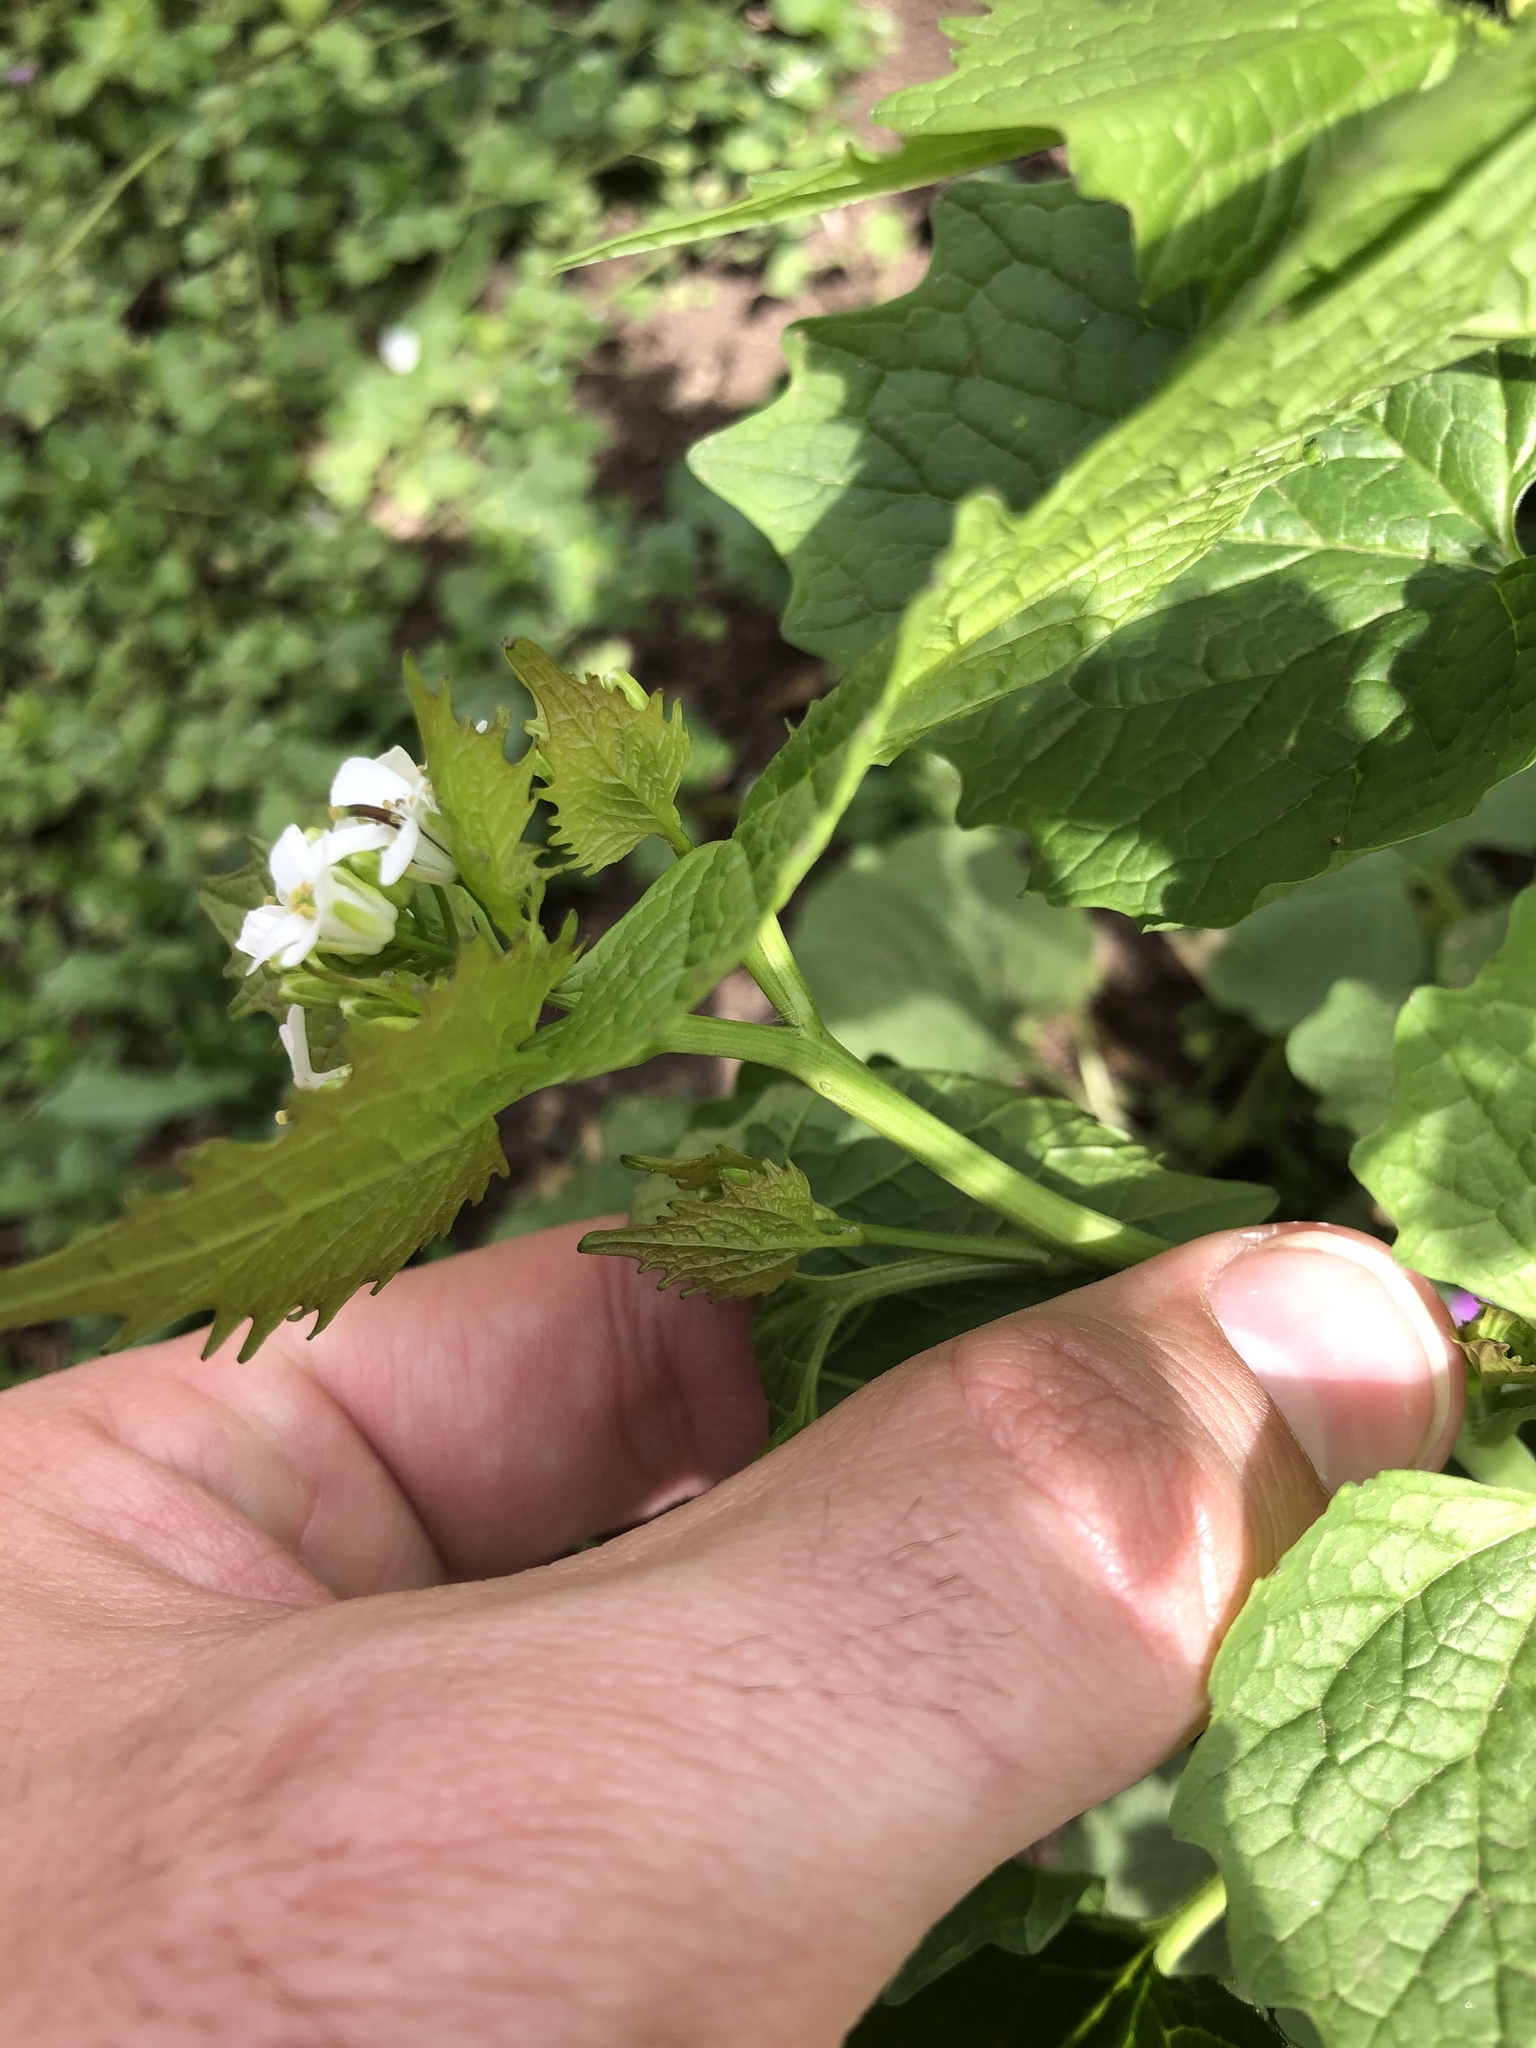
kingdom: Plantae
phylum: Tracheophyta
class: Magnoliopsida
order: Brassicales
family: Brassicaceae
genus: Alliaria
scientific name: Alliaria petiolata
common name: Garlic mustard
